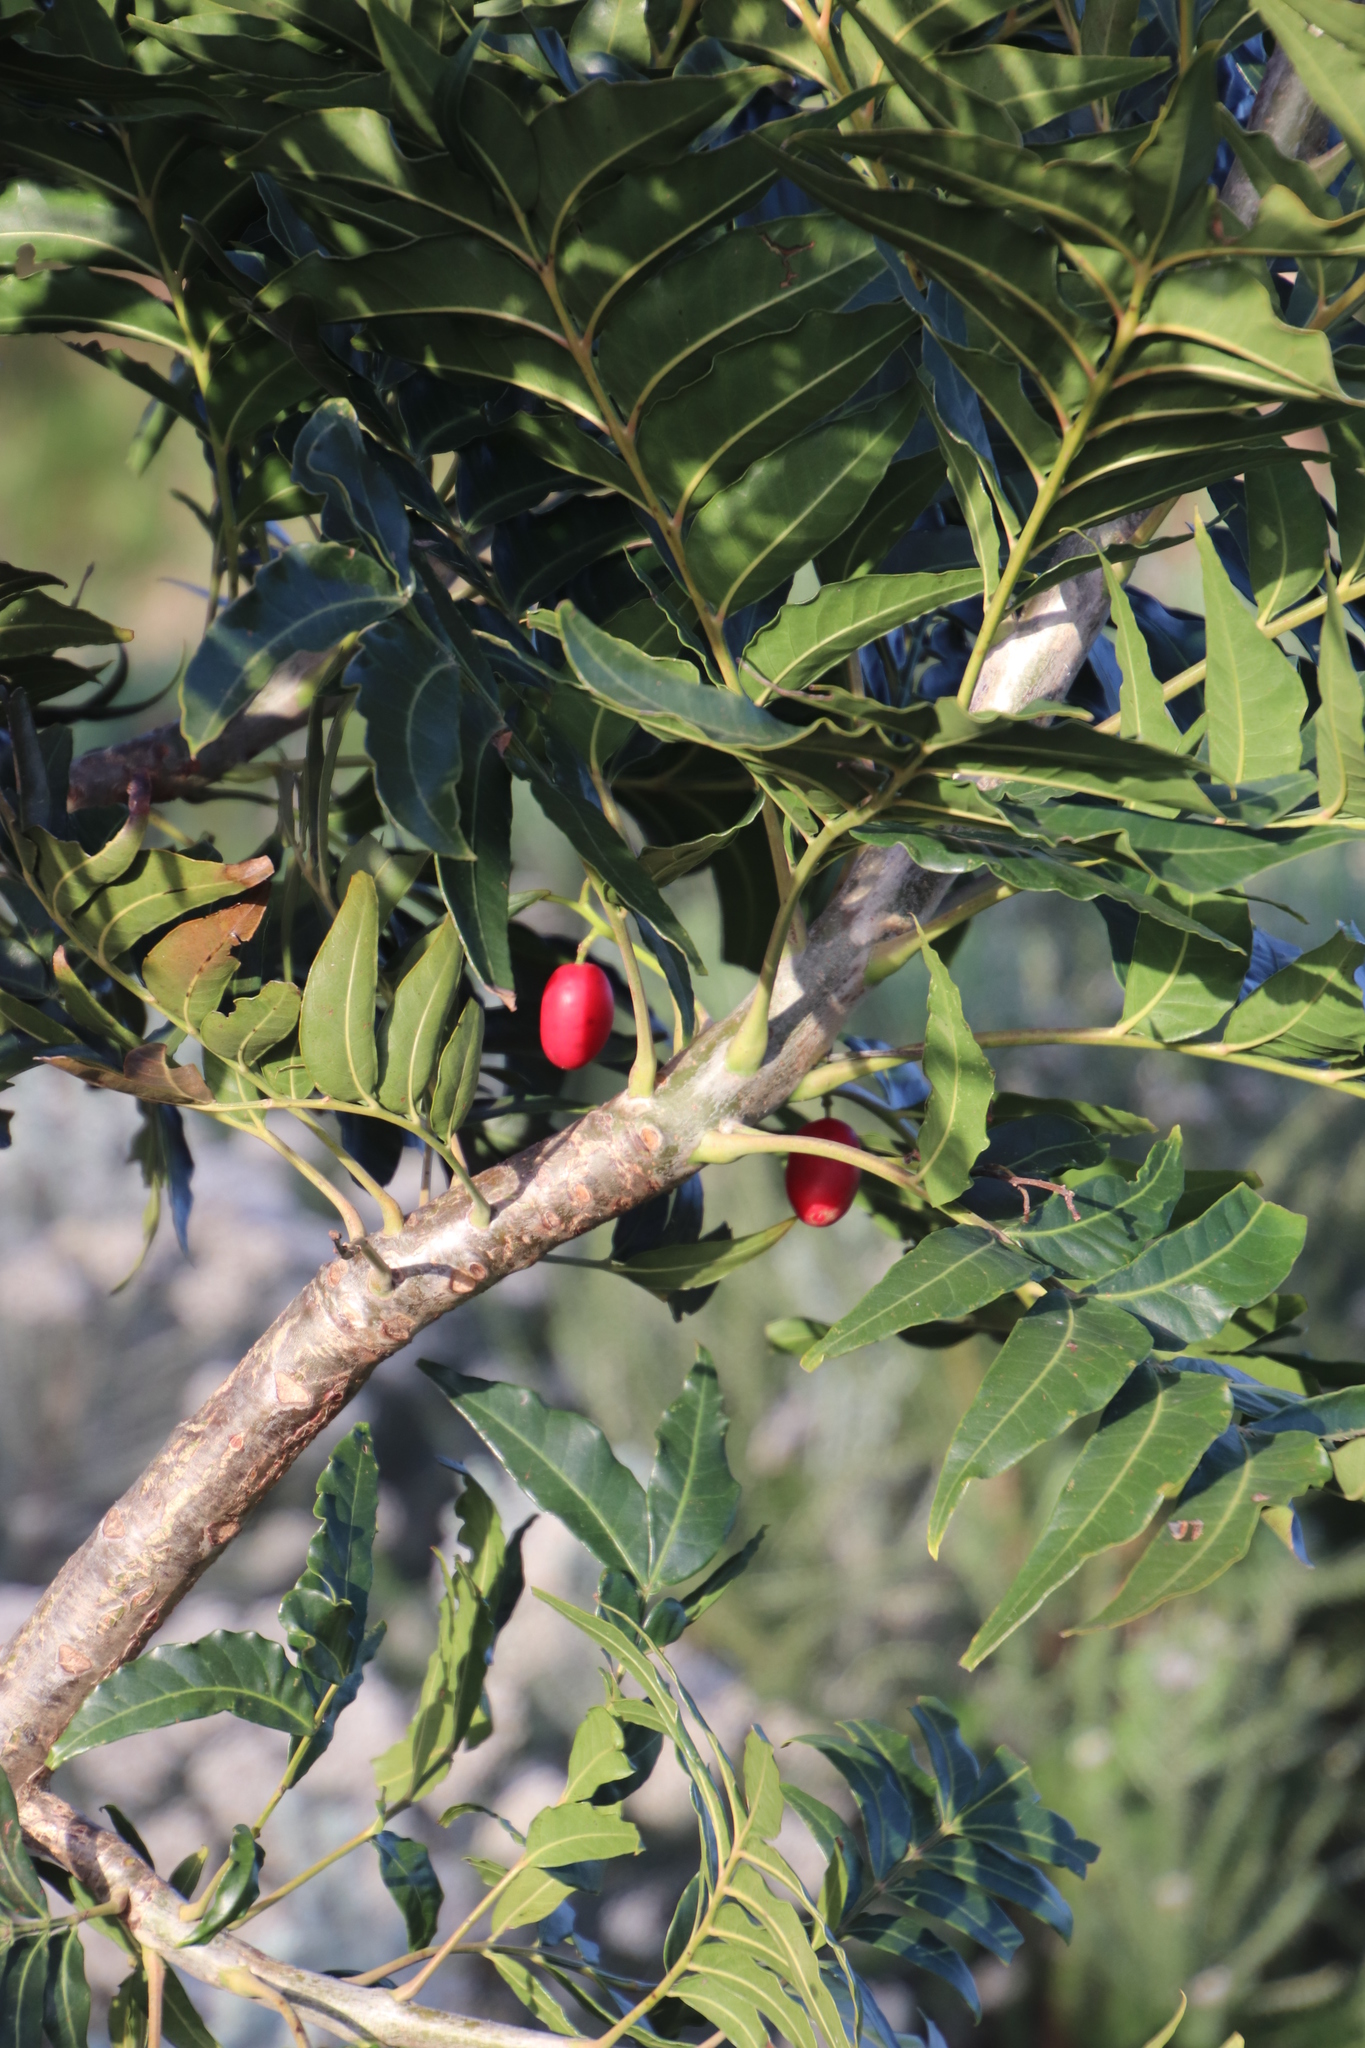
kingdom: Plantae
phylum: Tracheophyta
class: Magnoliopsida
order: Sapindales
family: Anacardiaceae
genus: Harpephyllum
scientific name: Harpephyllum caffrum
